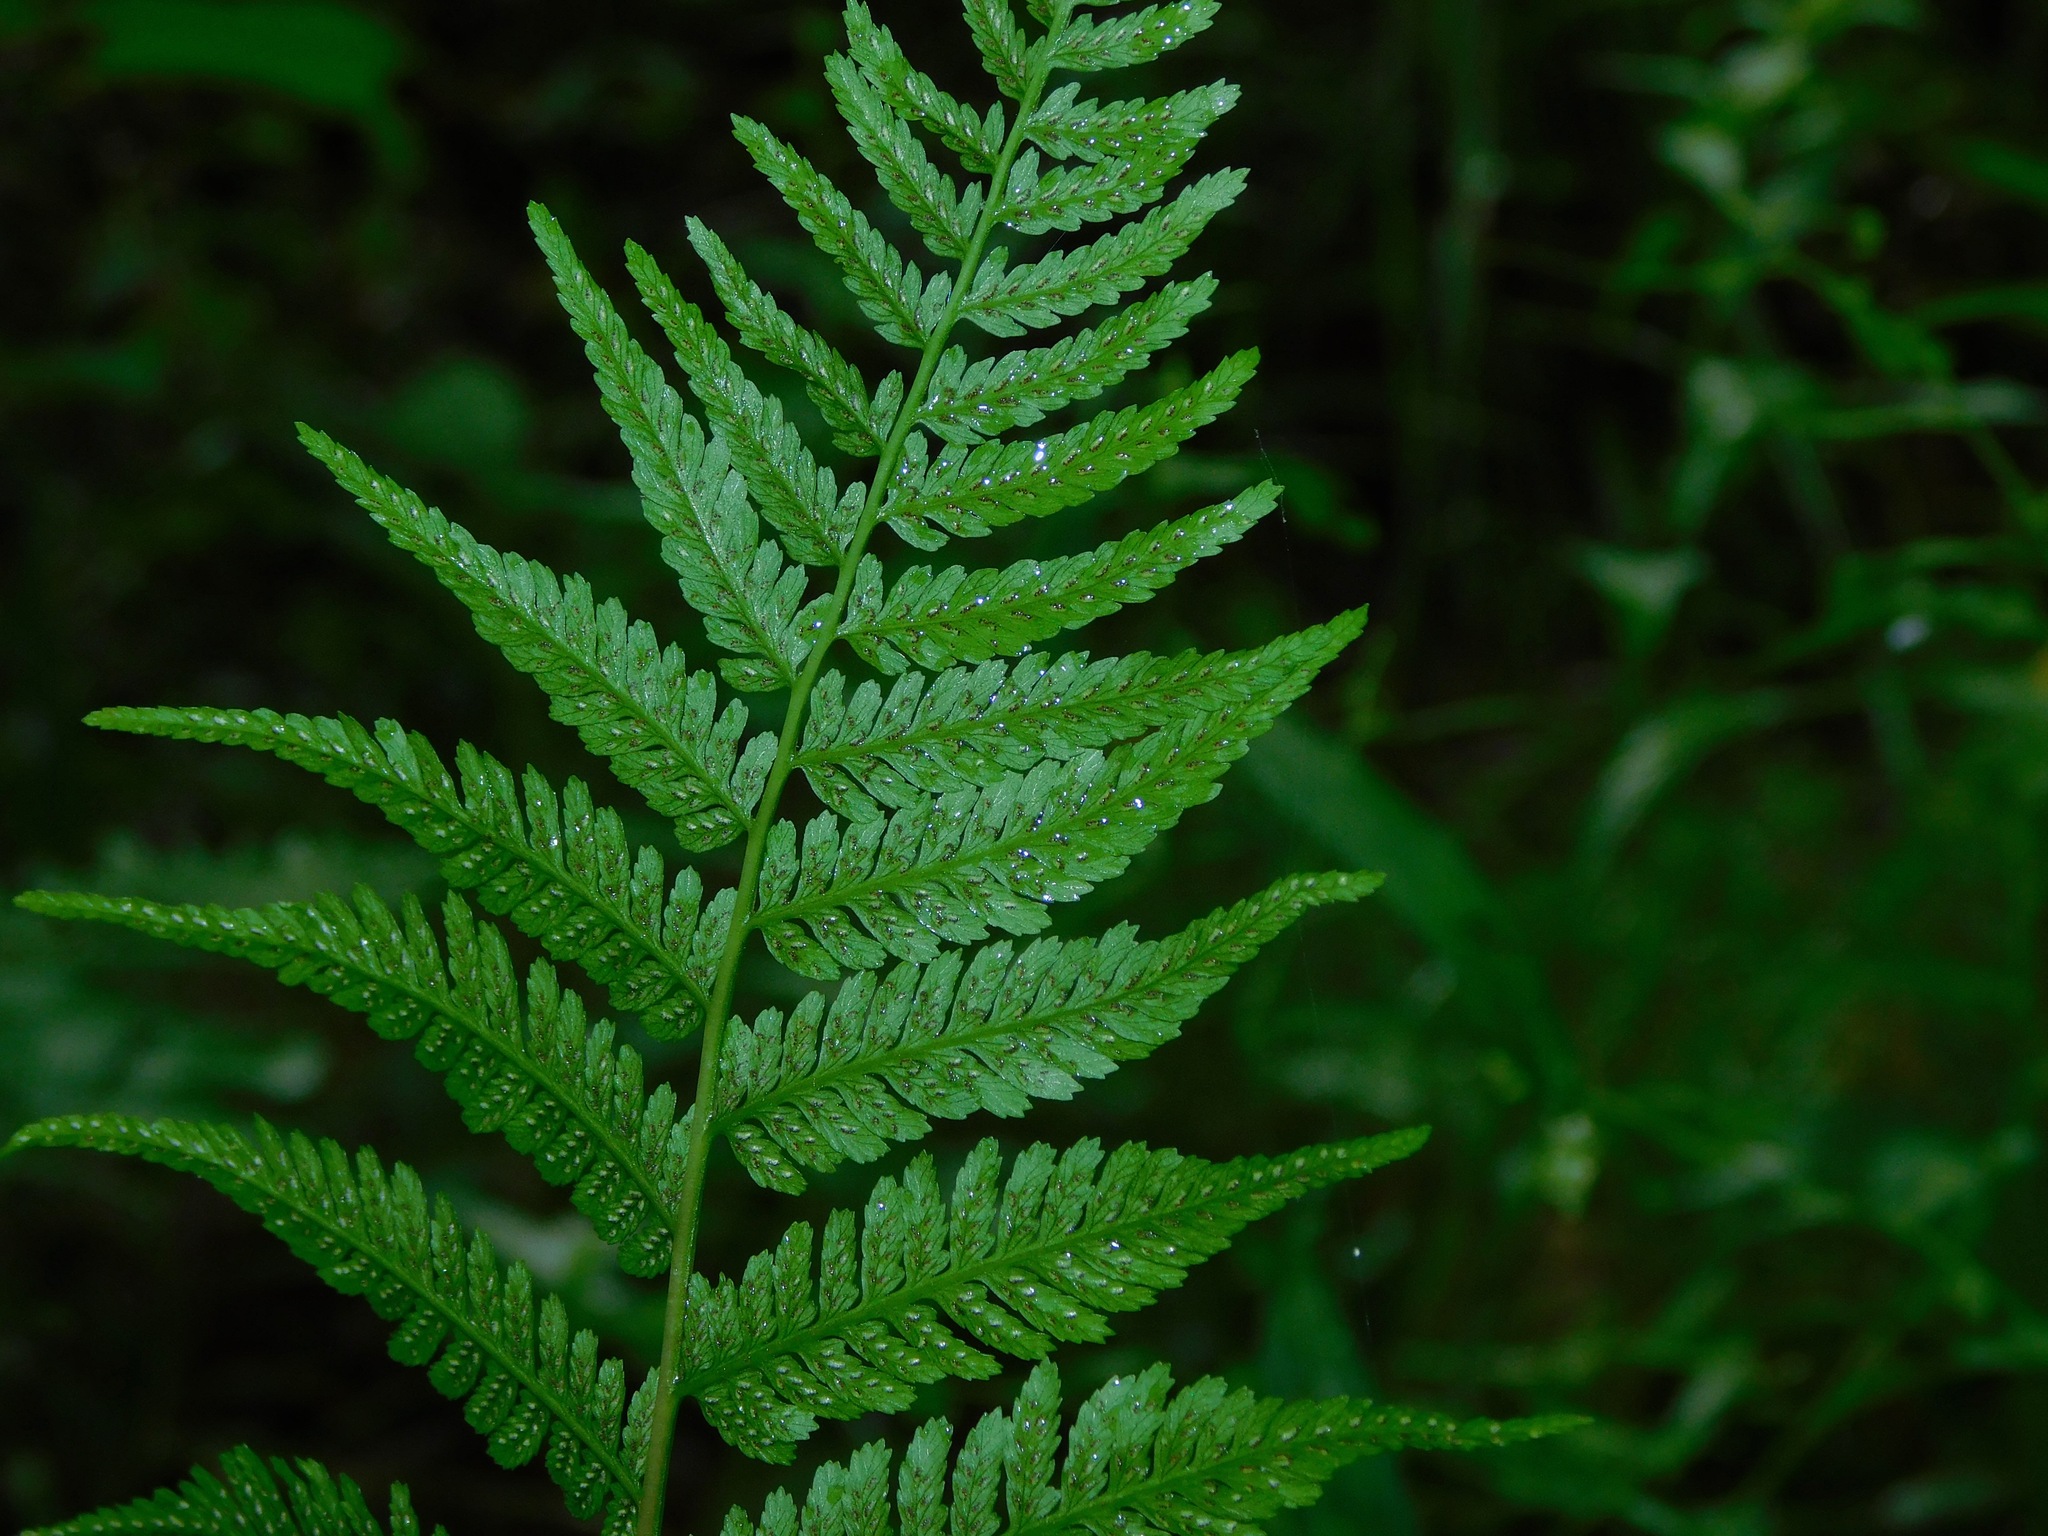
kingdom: Plantae
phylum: Tracheophyta
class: Polypodiopsida
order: Polypodiales
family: Athyriaceae
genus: Athyrium
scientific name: Athyrium asplenioides
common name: Southern lady fern
